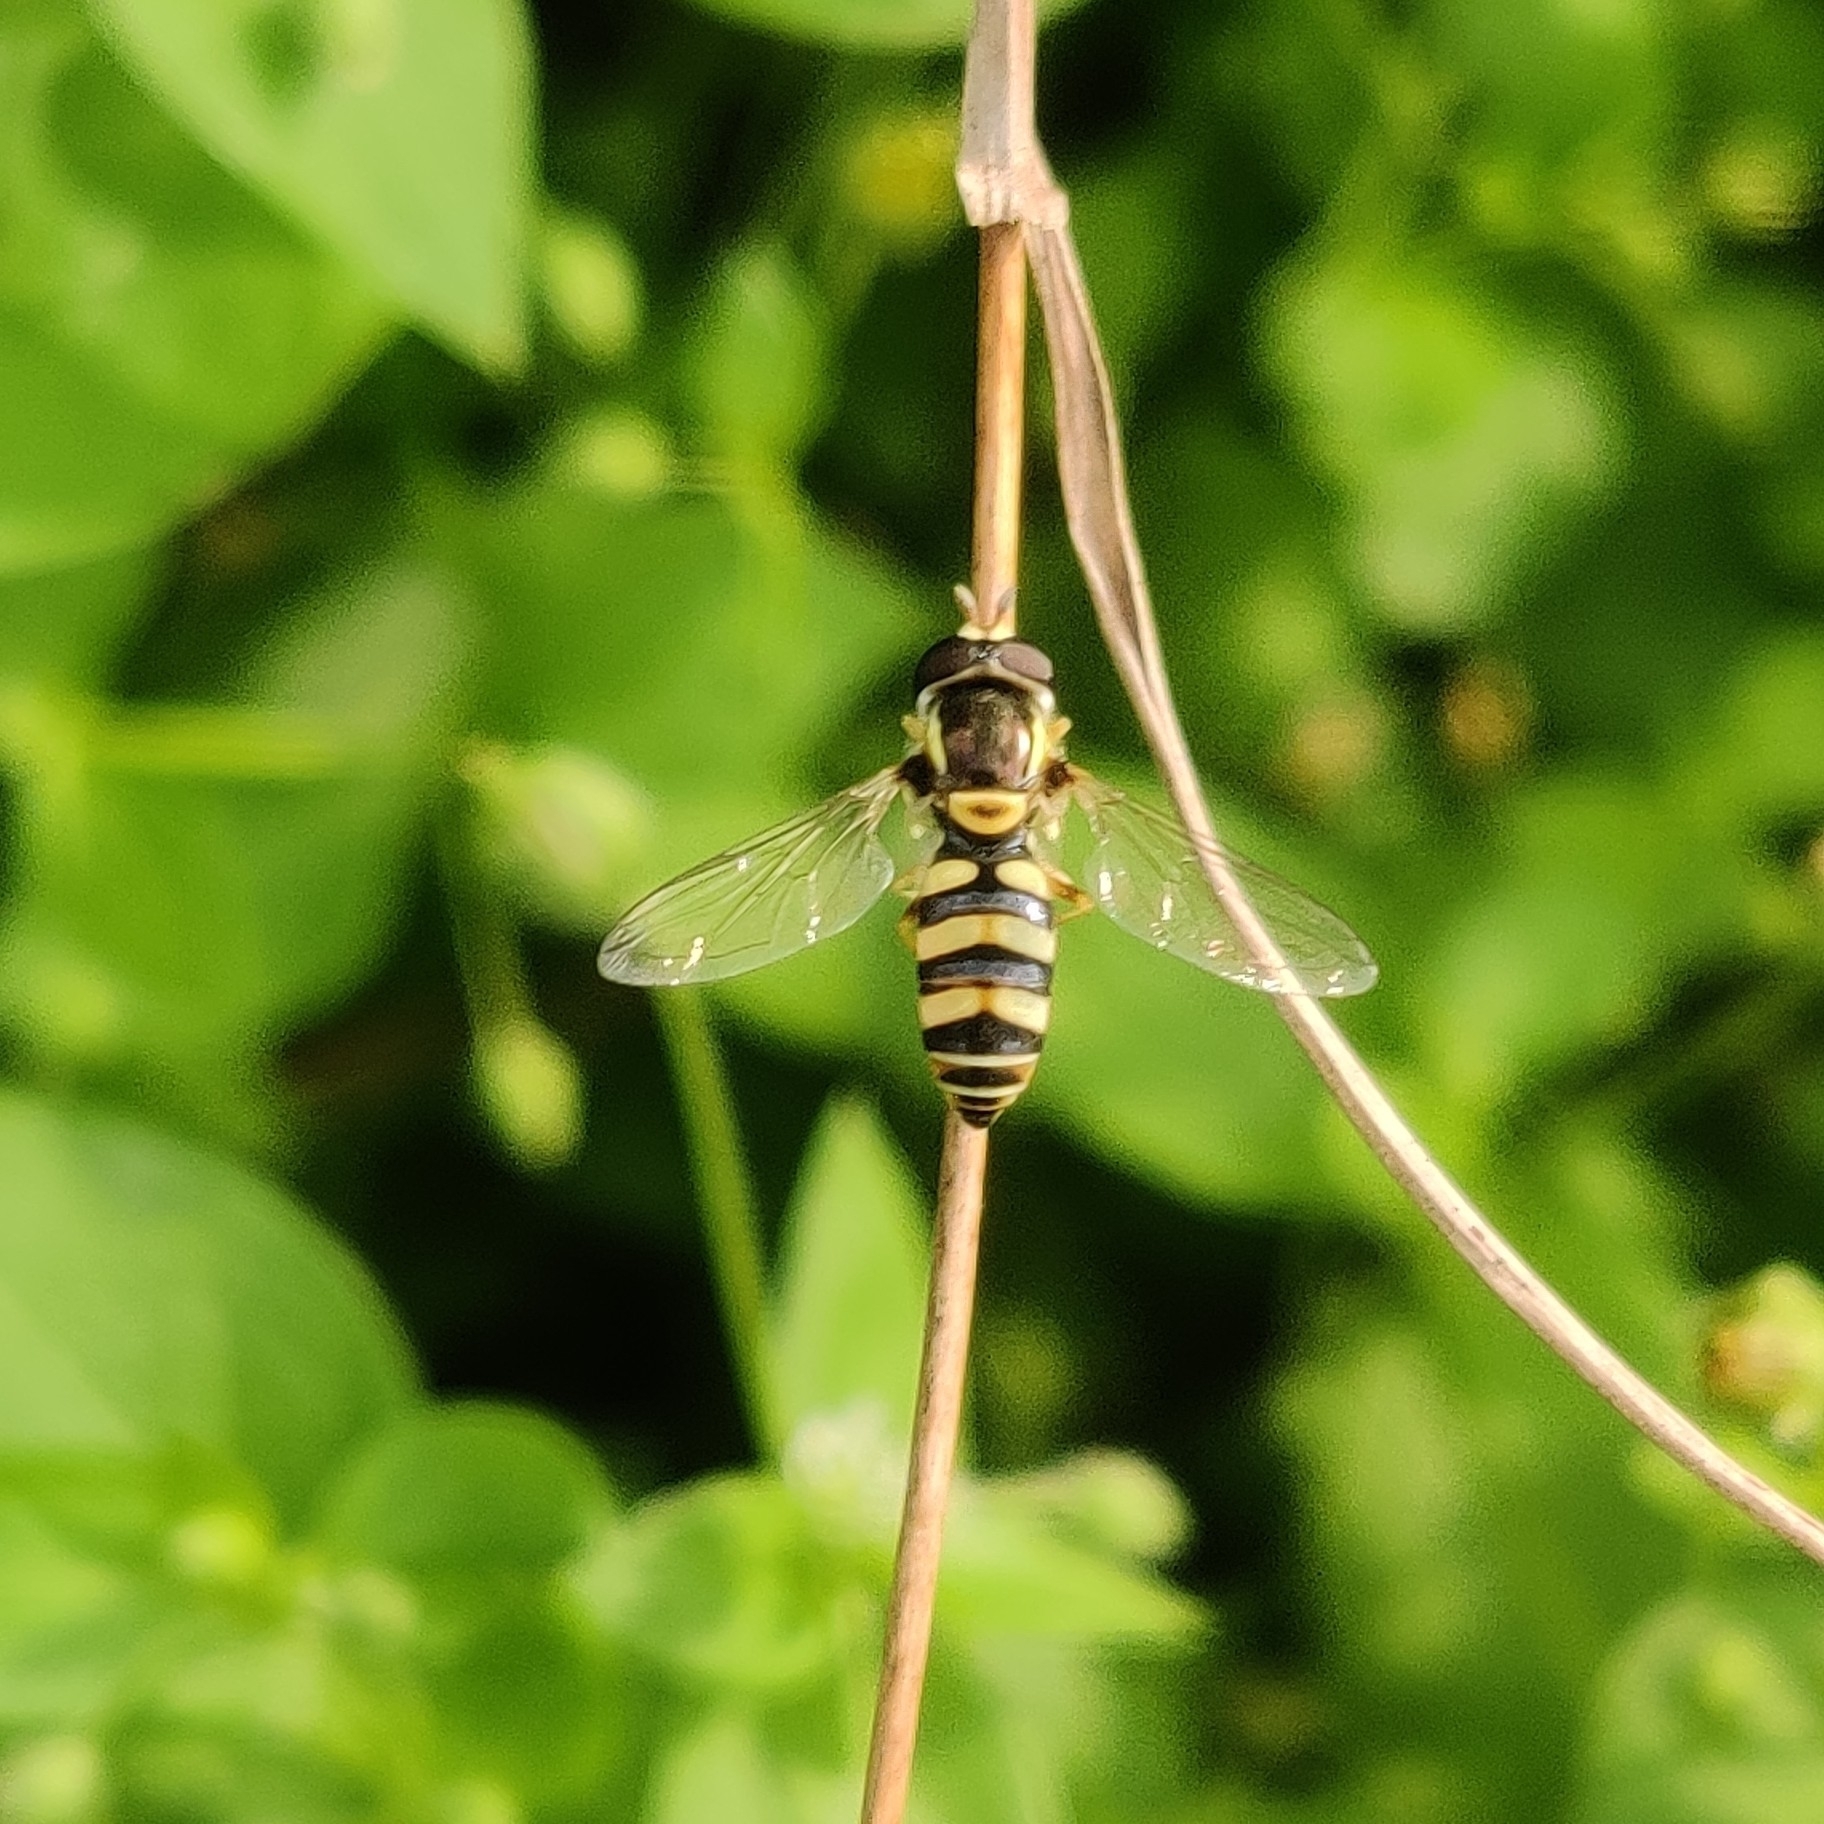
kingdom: Animalia
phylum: Arthropoda
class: Insecta
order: Diptera
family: Syrphidae
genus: Ischiodon
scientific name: Ischiodon scutellaris
